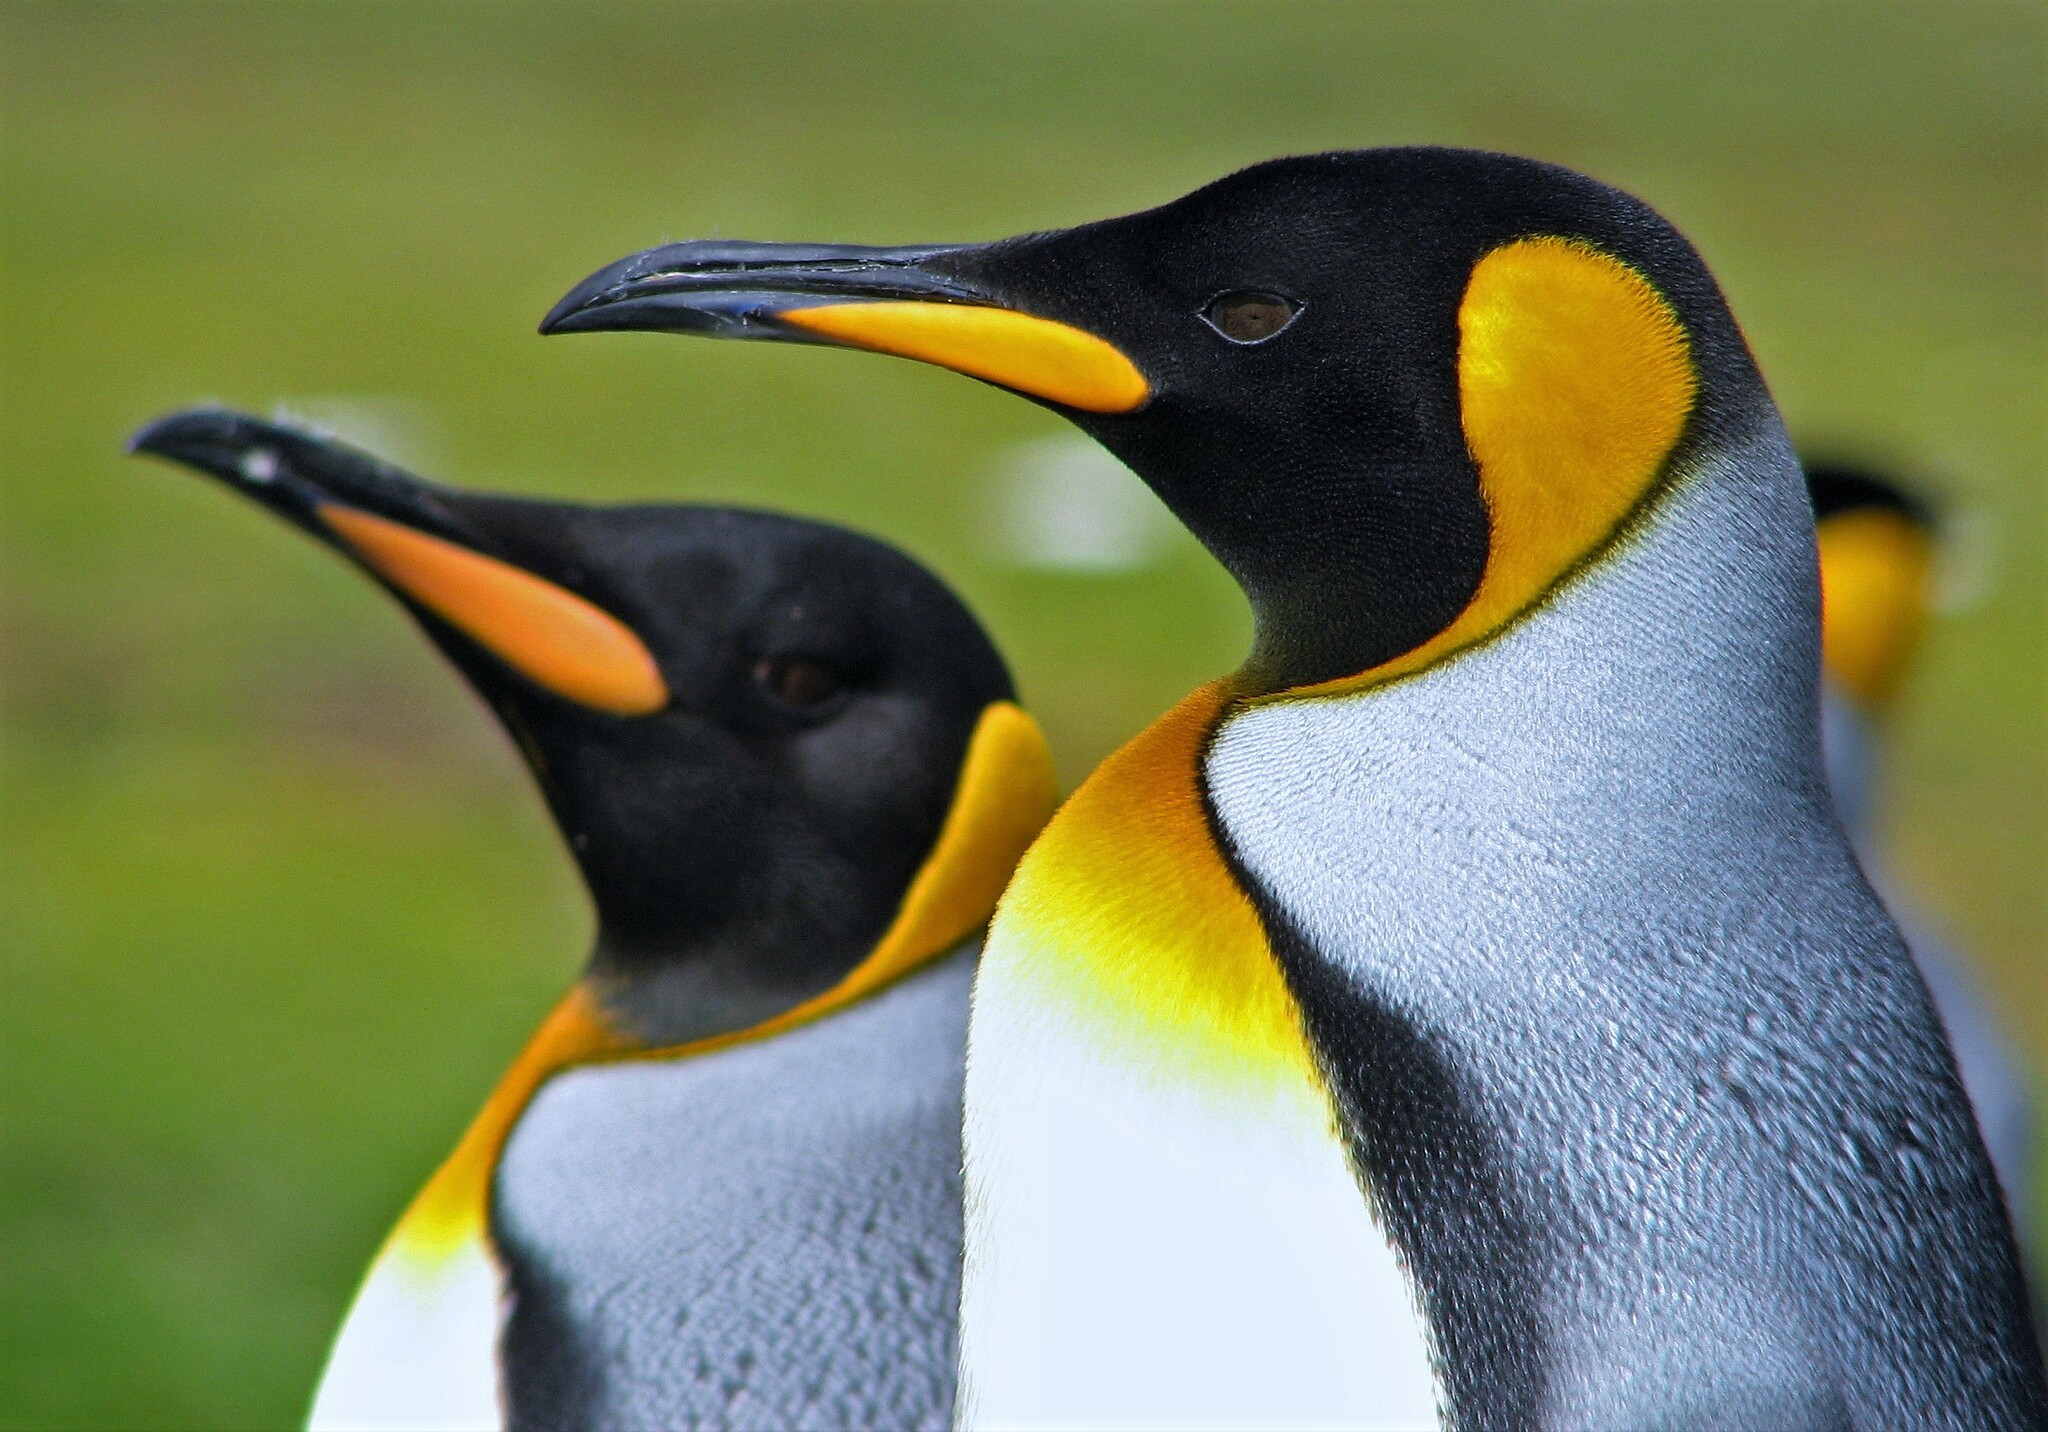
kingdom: Animalia
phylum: Chordata
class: Aves
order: Sphenisciformes
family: Spheniscidae
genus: Aptenodytes
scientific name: Aptenodytes patagonicus
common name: King penguin
